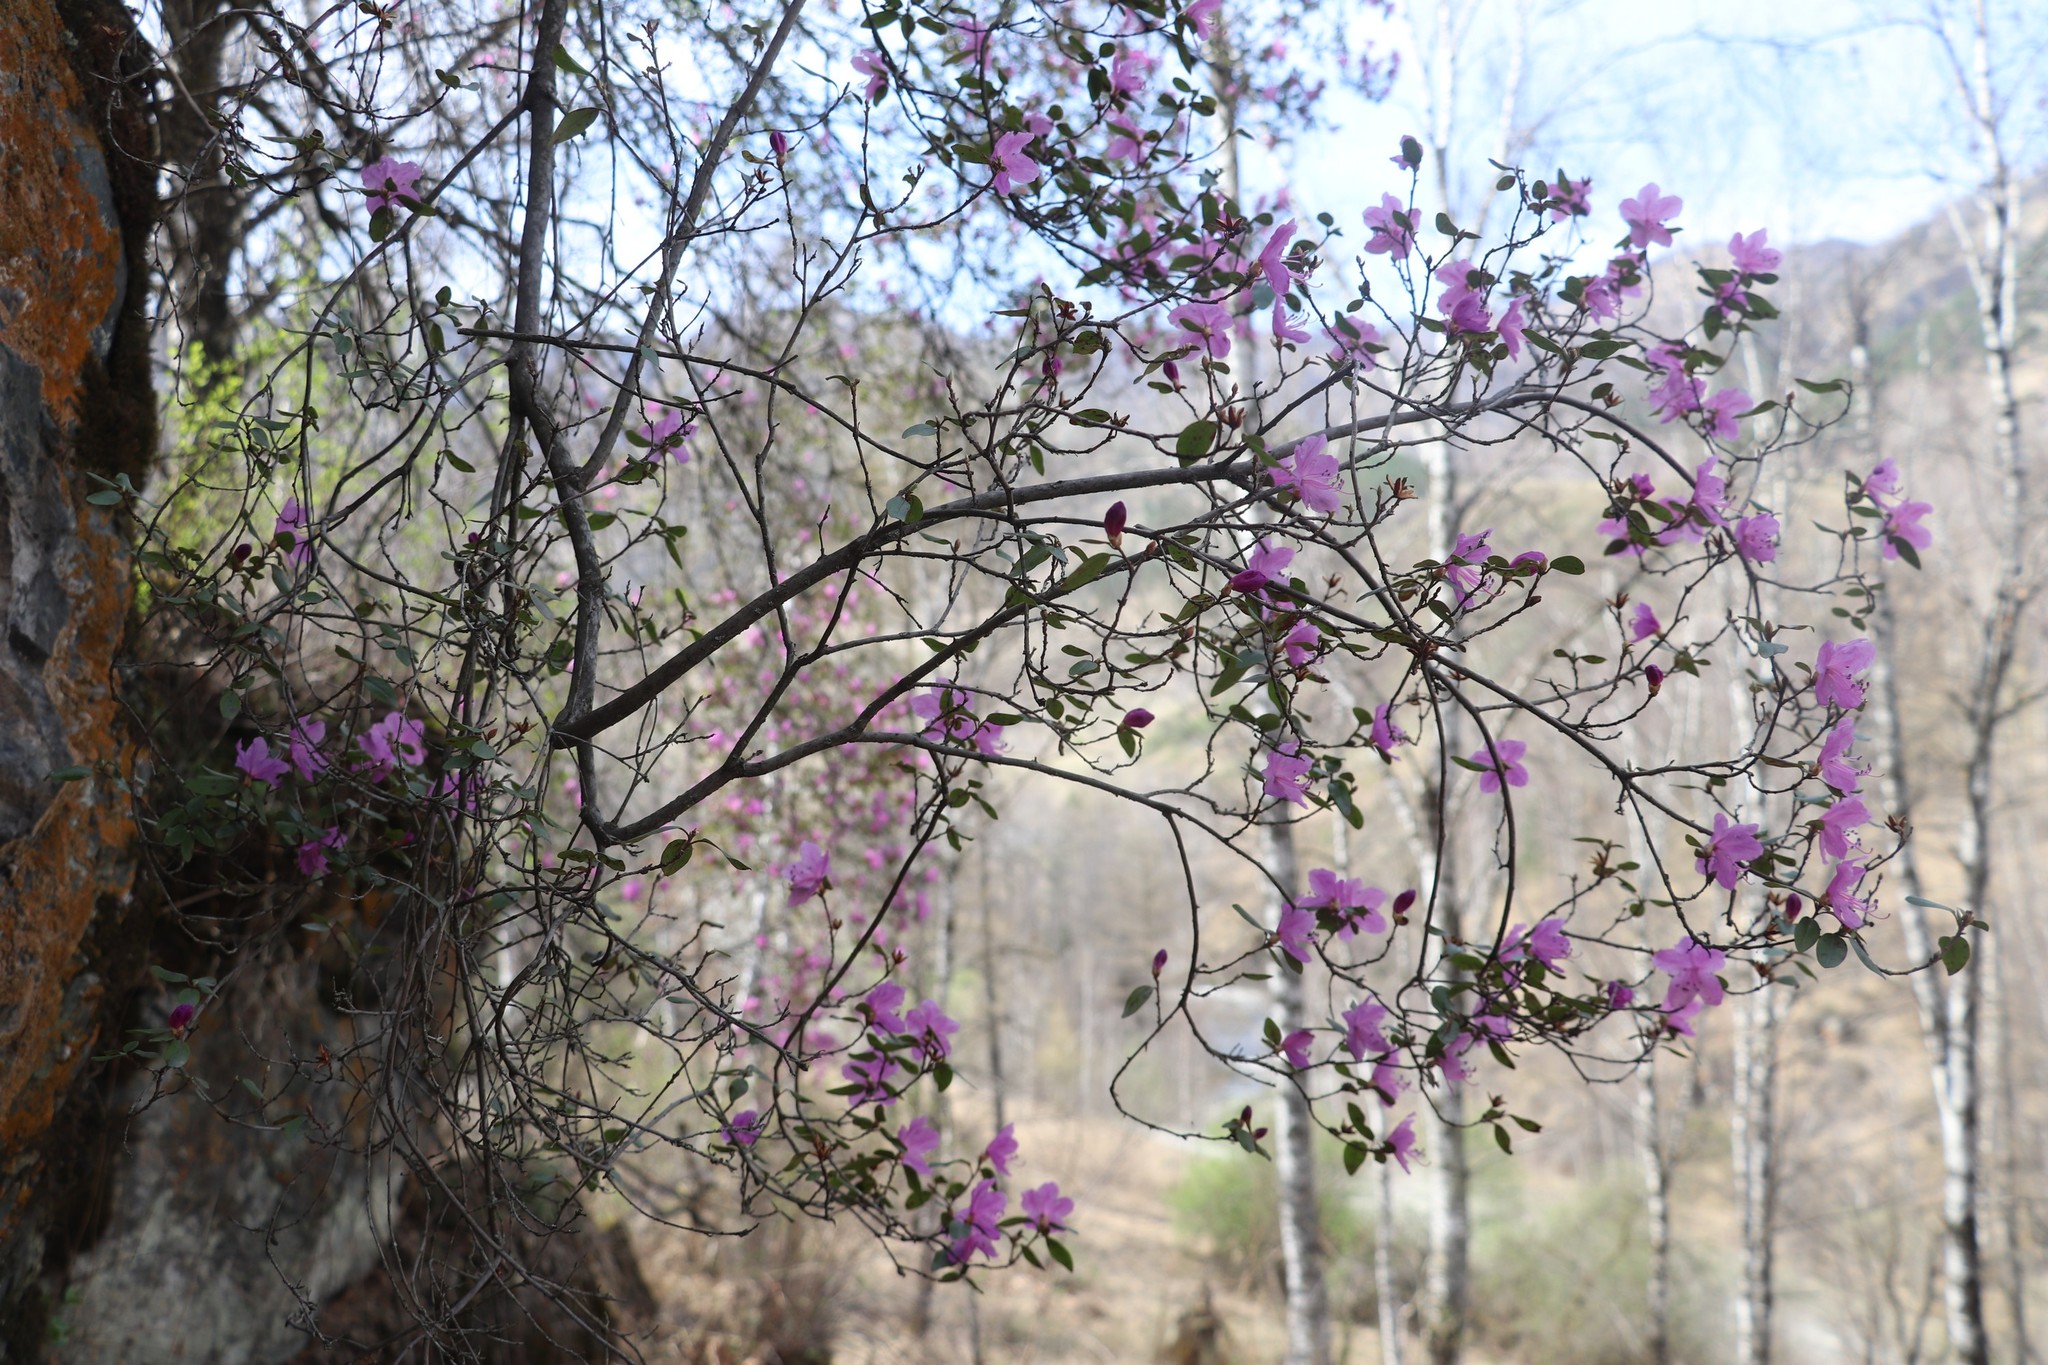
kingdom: Plantae
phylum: Tracheophyta
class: Magnoliopsida
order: Ericales
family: Ericaceae
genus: Rhododendron
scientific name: Rhododendron dauricum
